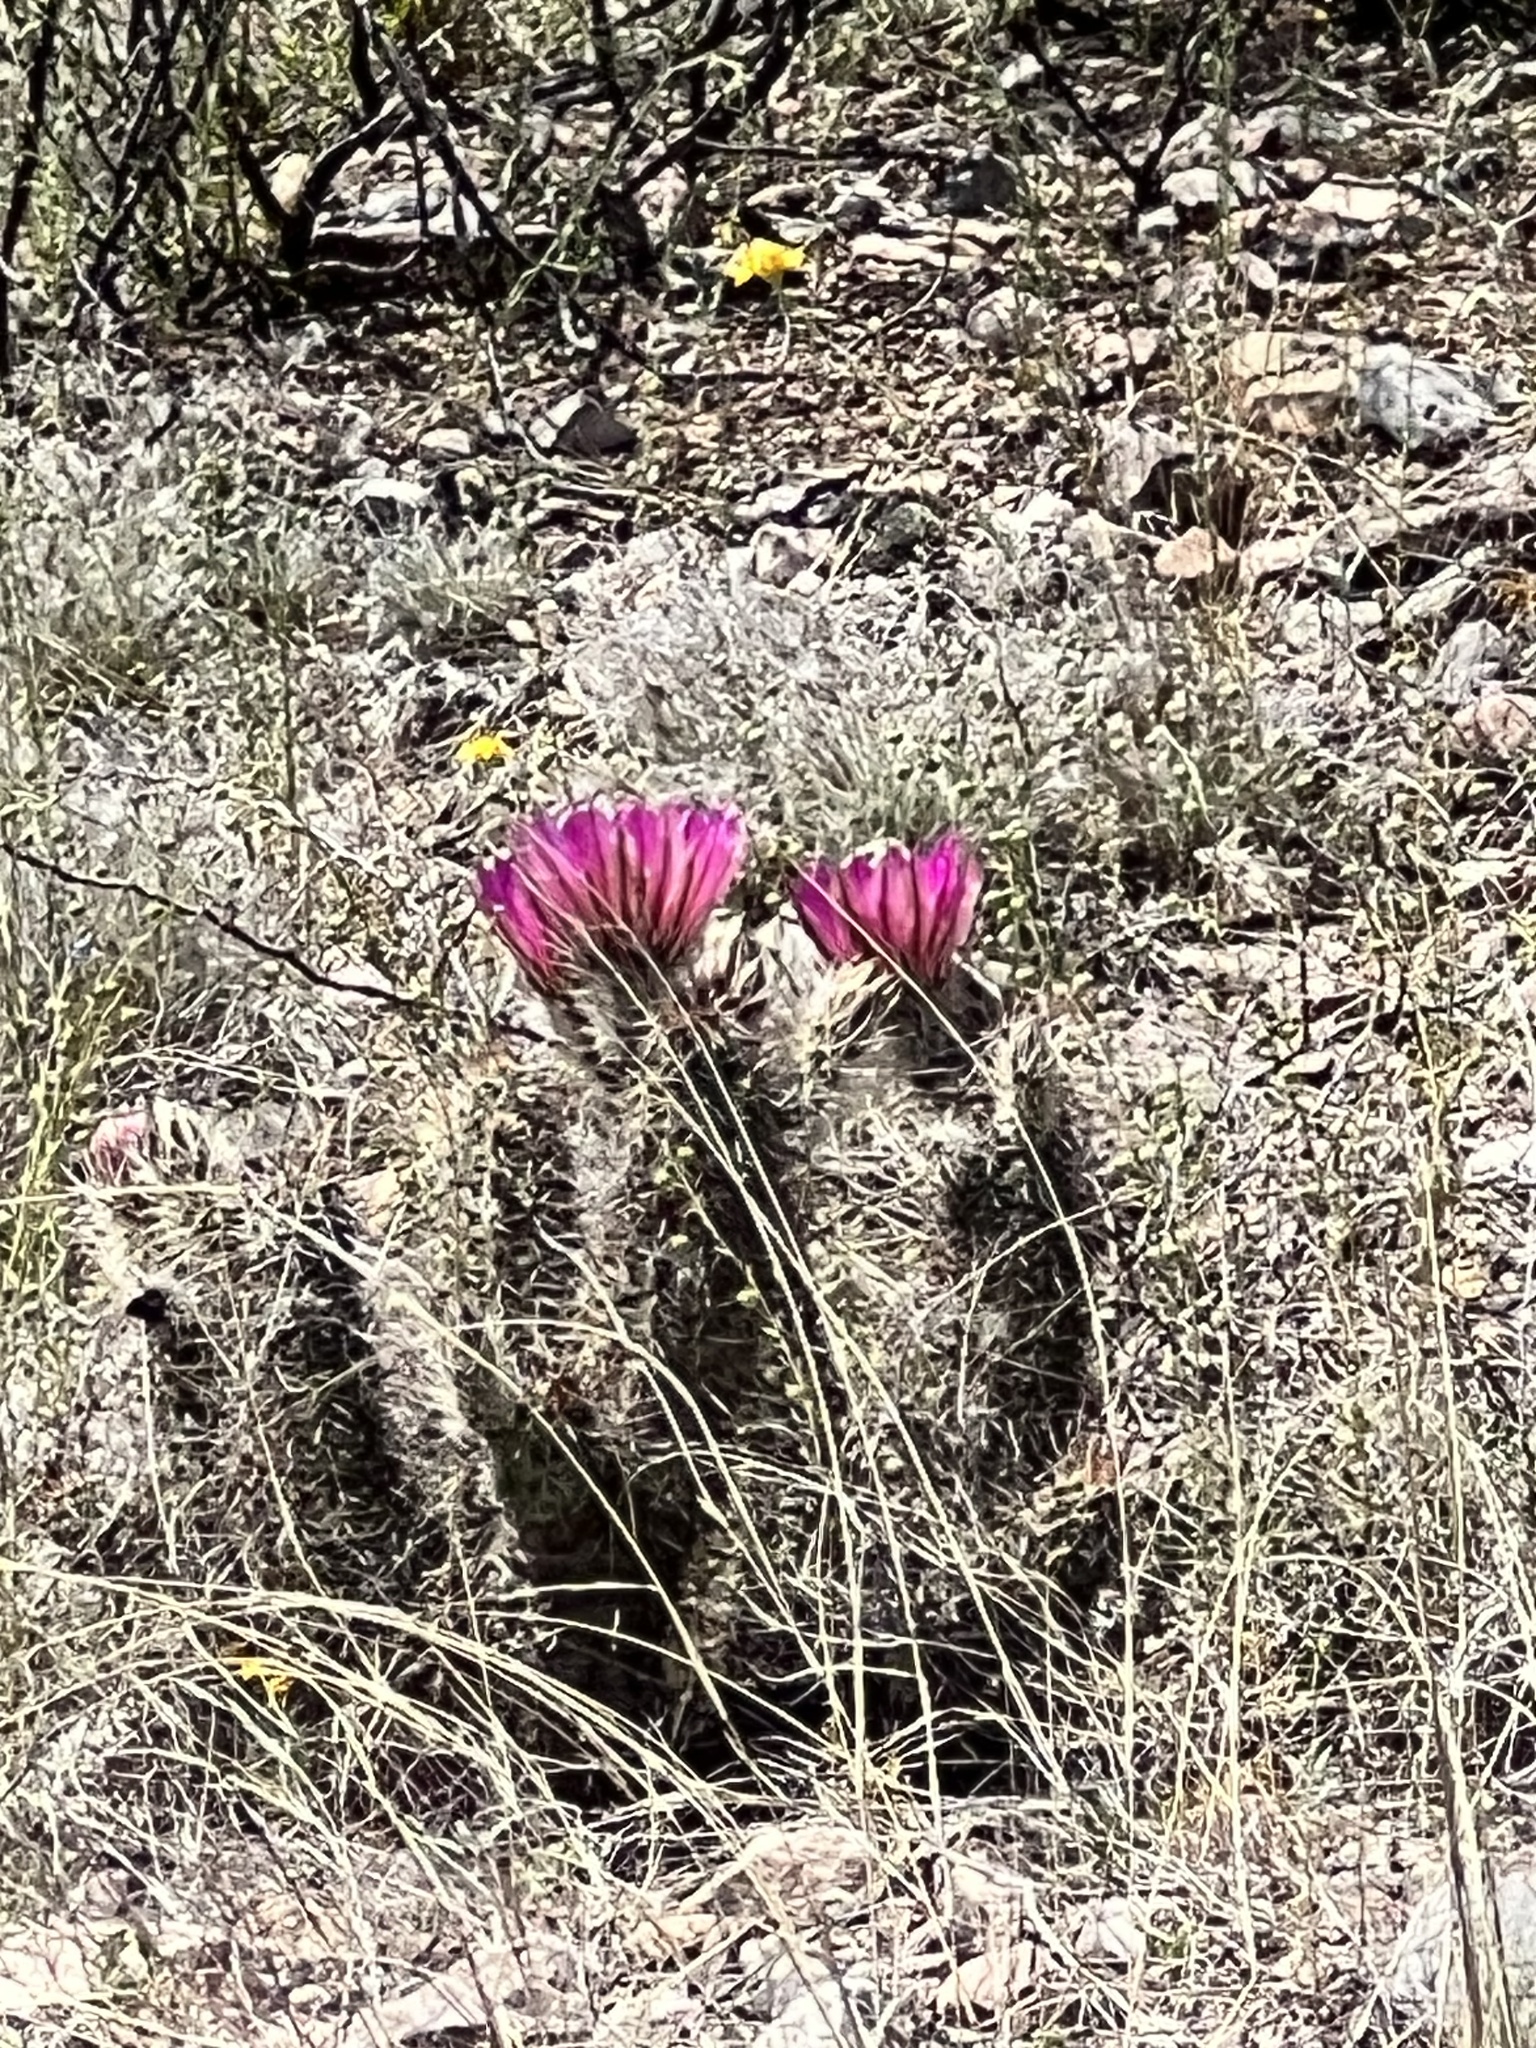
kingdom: Plantae
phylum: Tracheophyta
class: Magnoliopsida
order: Caryophyllales
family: Cactaceae
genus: Echinocereus
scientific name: Echinocereus fasciculatus
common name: Bundle hedgehog
